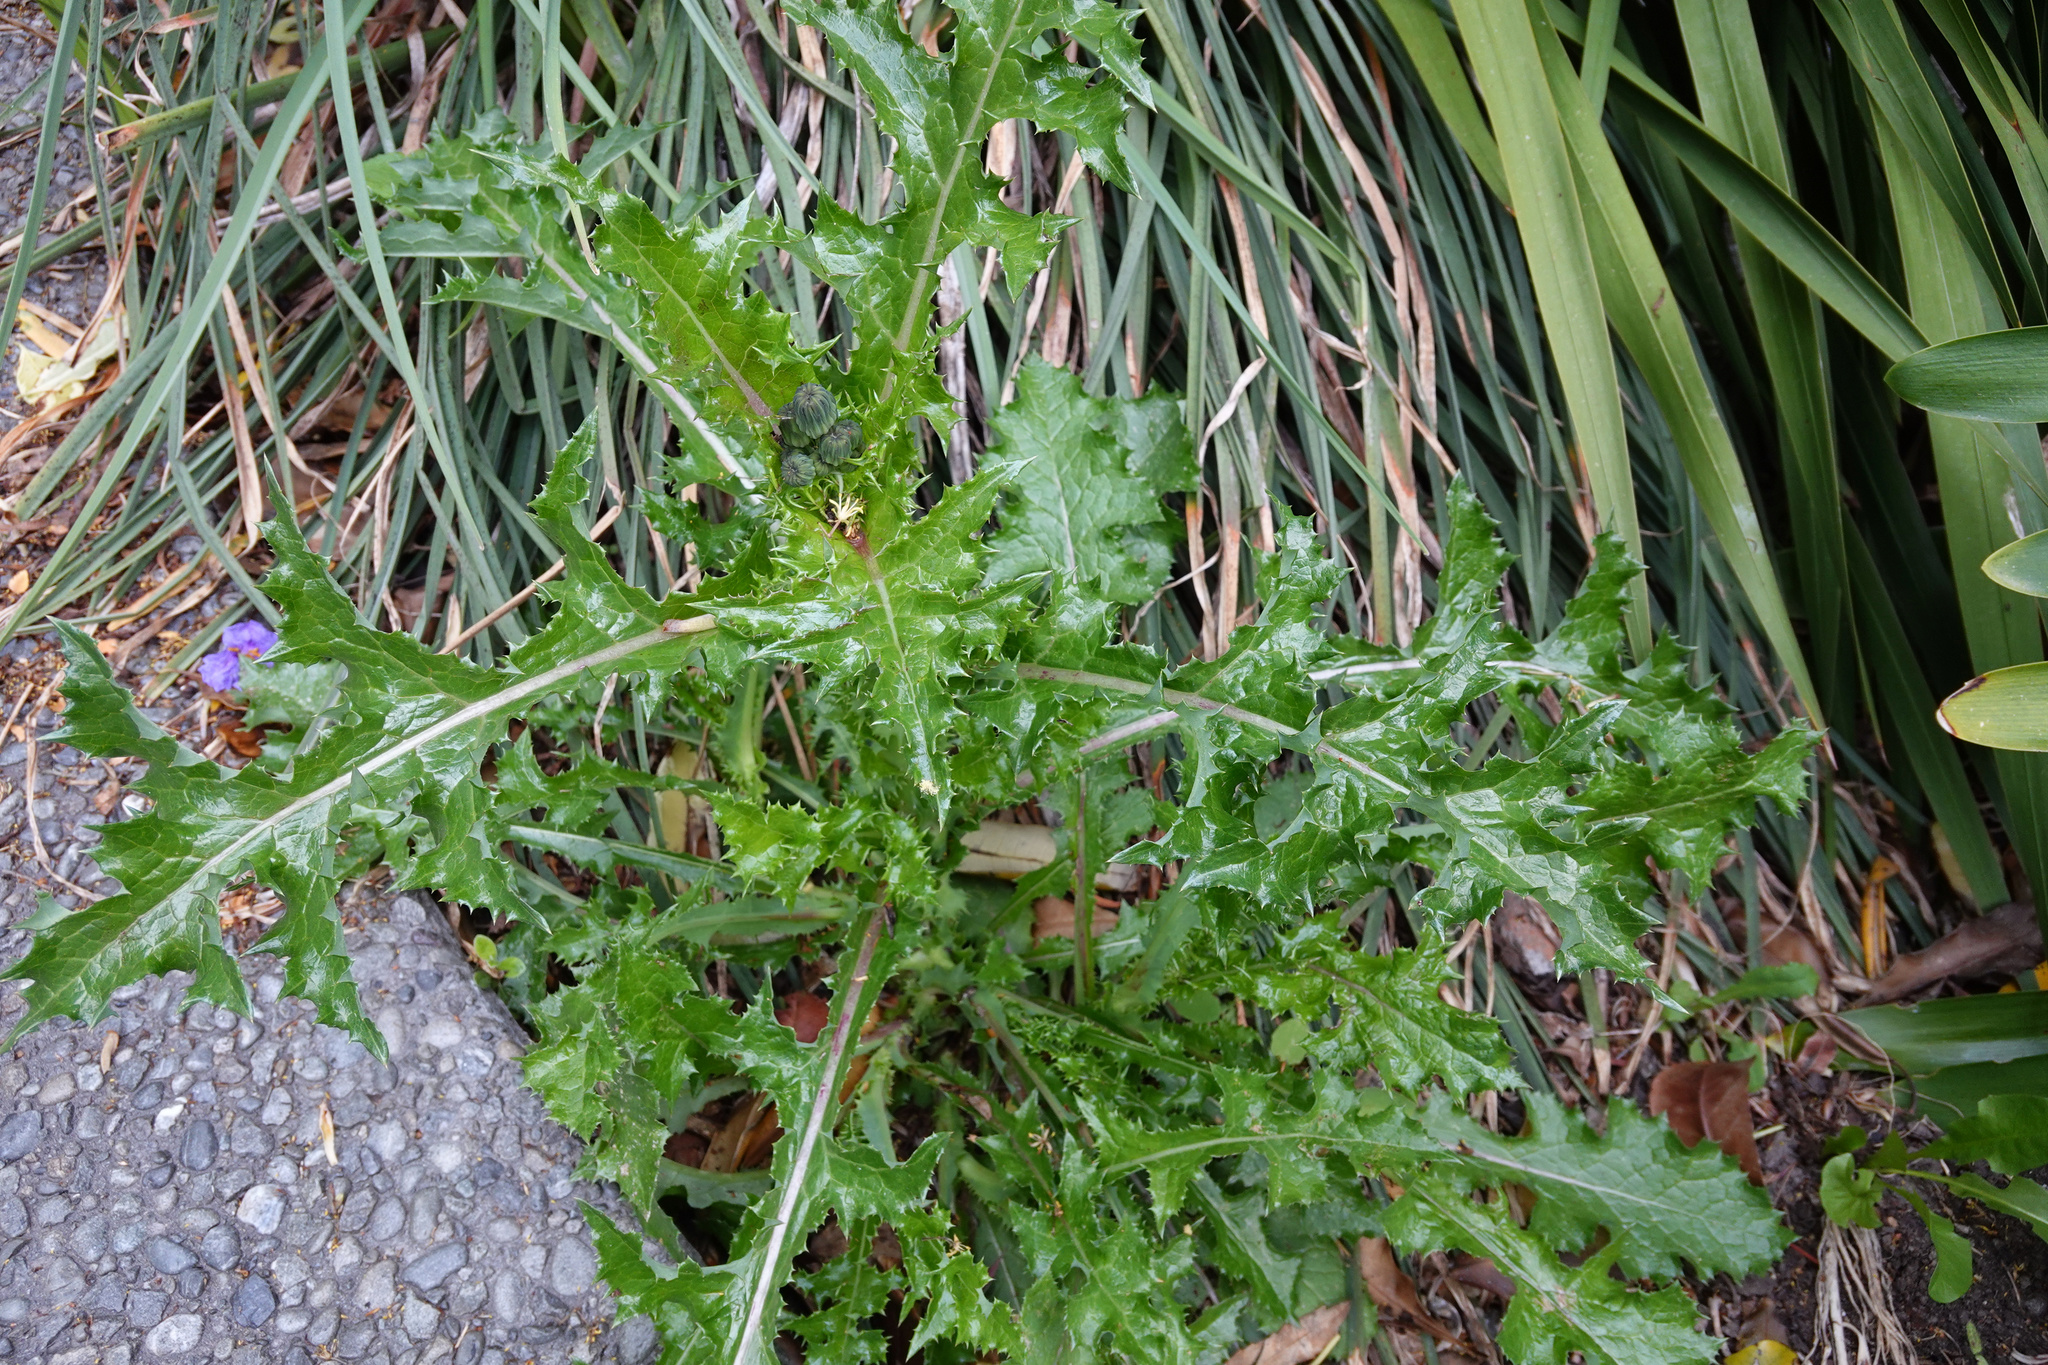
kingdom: Plantae
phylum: Tracheophyta
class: Magnoliopsida
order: Asterales
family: Asteraceae
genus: Sonchus
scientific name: Sonchus asper
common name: Prickly sow-thistle
